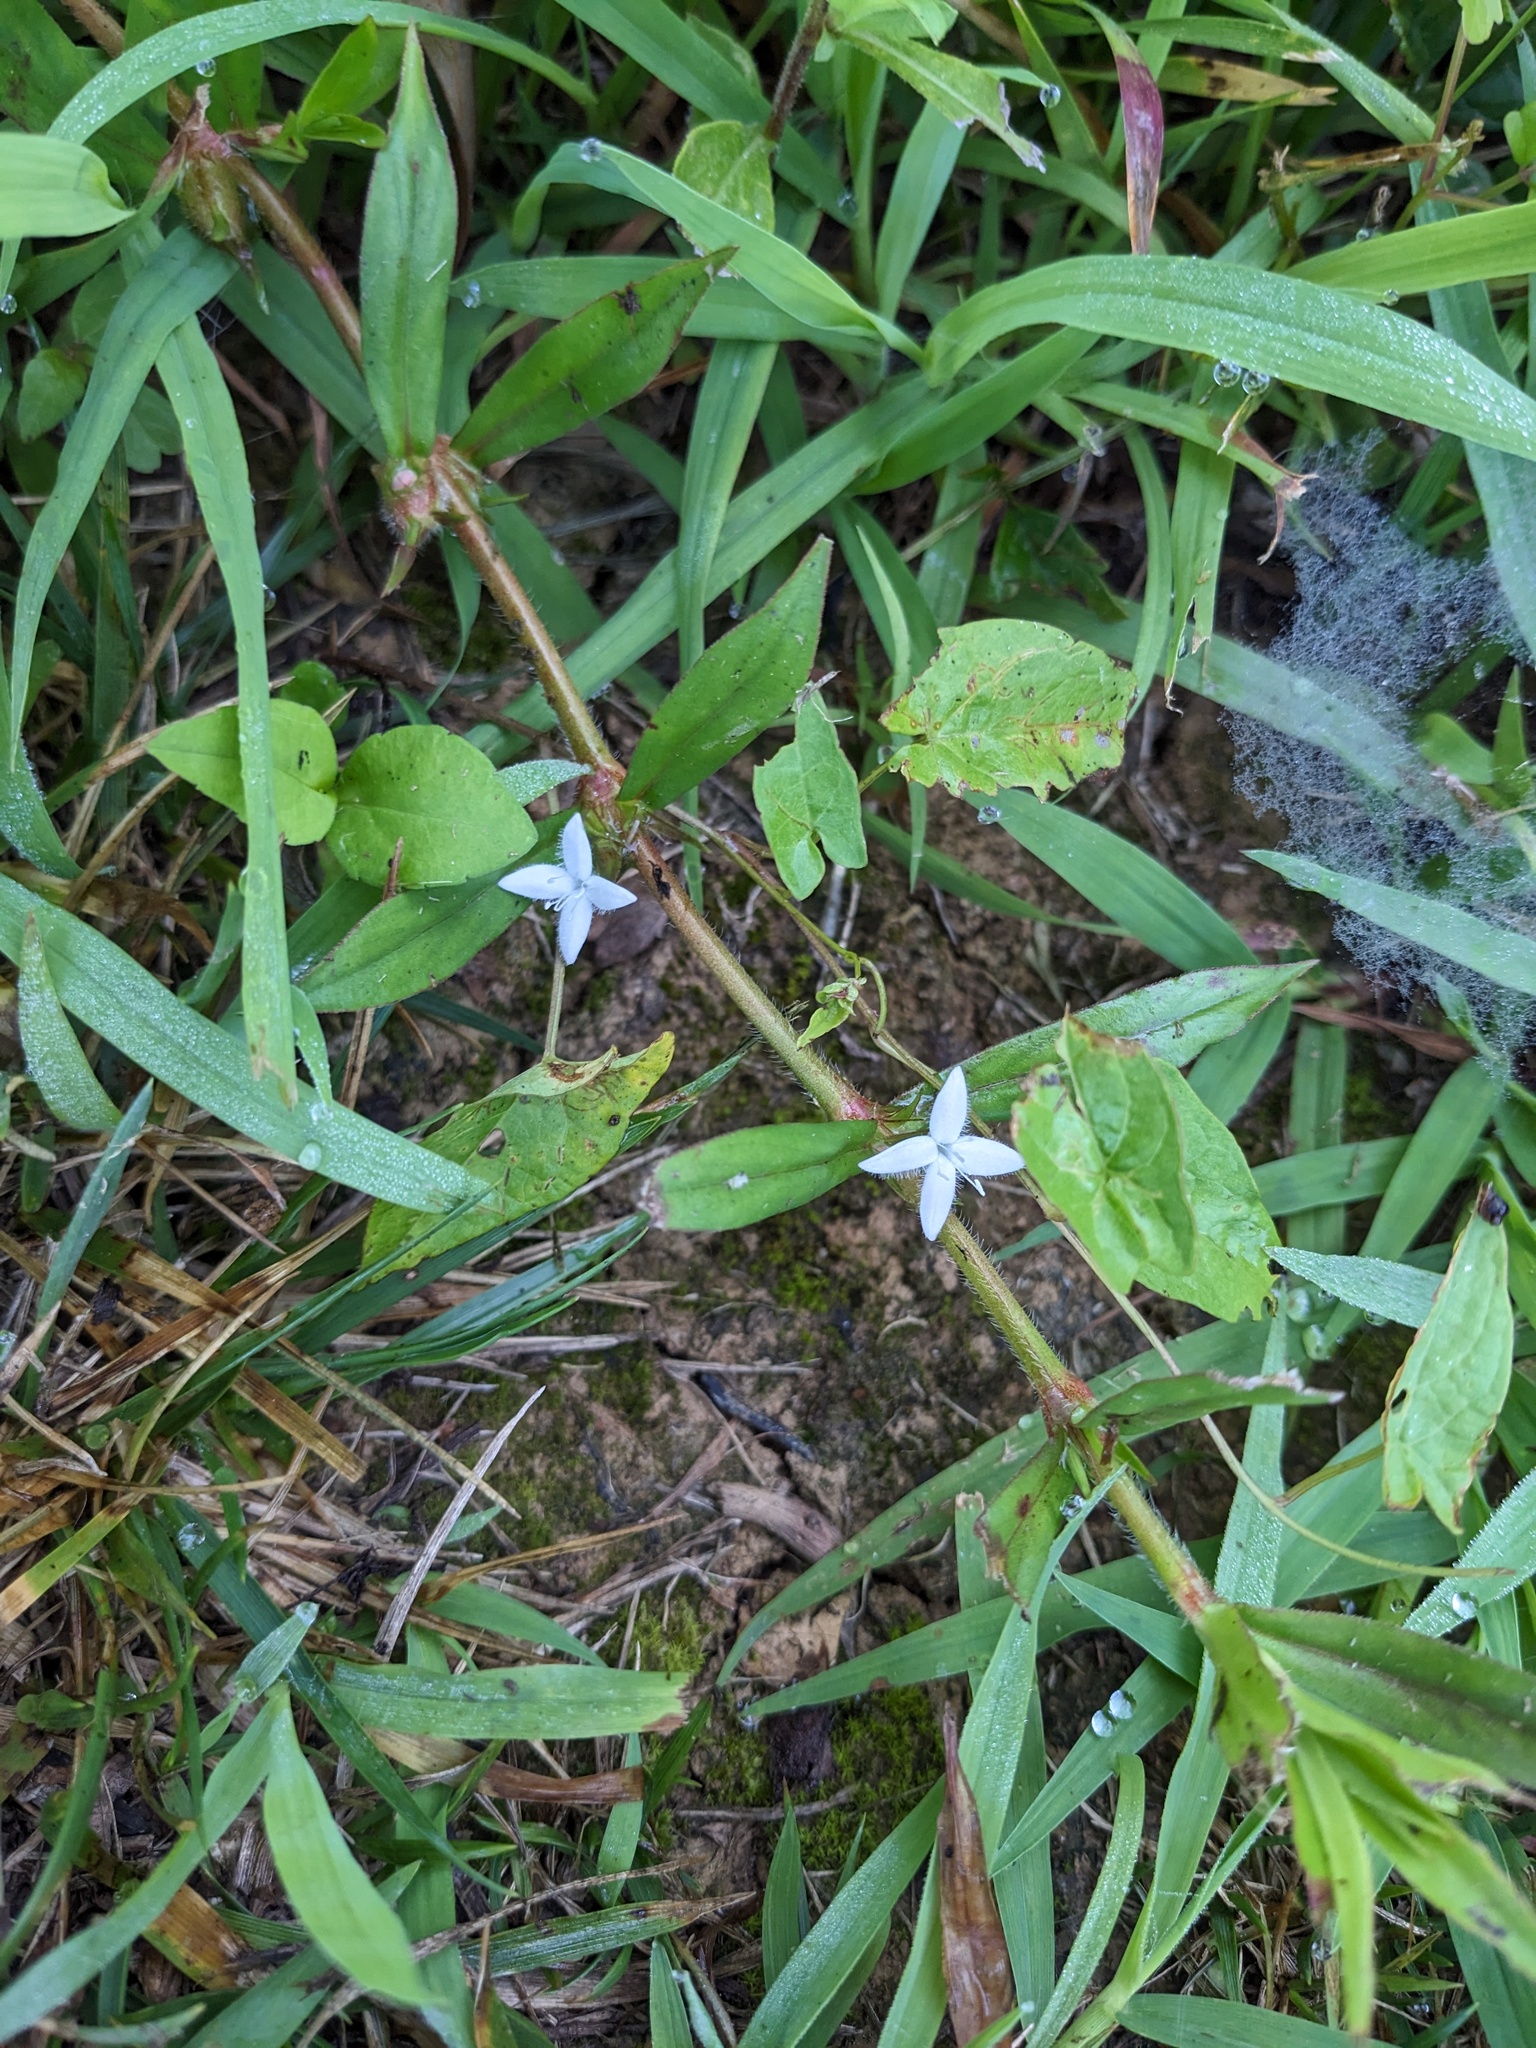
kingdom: Plantae
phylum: Tracheophyta
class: Magnoliopsida
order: Gentianales
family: Rubiaceae
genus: Diodia
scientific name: Diodia virginiana
